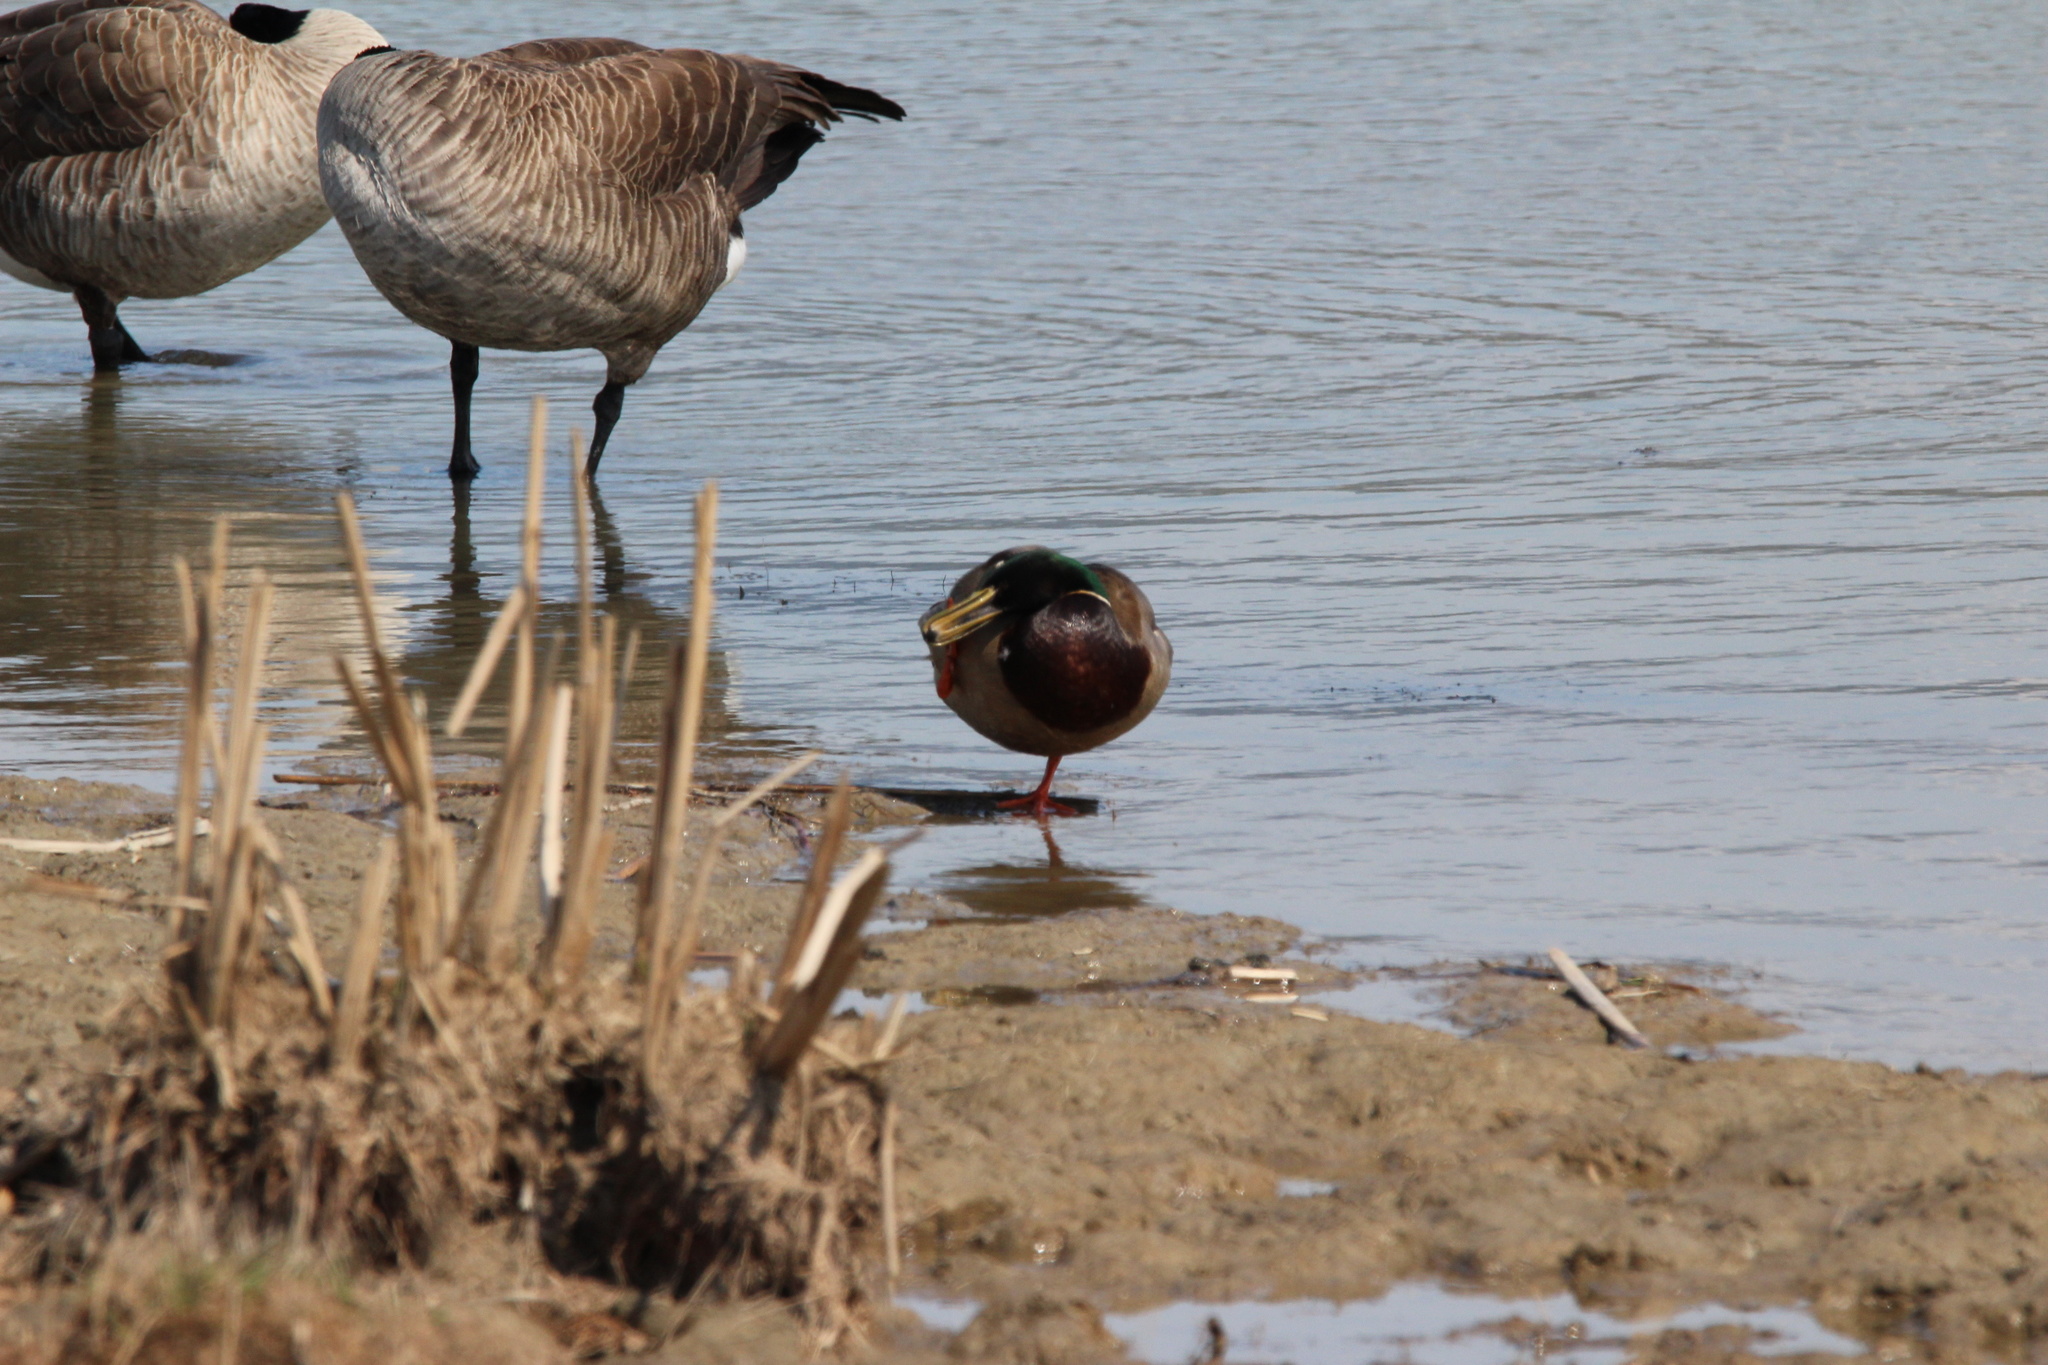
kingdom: Animalia
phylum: Chordata
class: Aves
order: Anseriformes
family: Anatidae
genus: Anas
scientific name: Anas platyrhynchos
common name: Mallard
